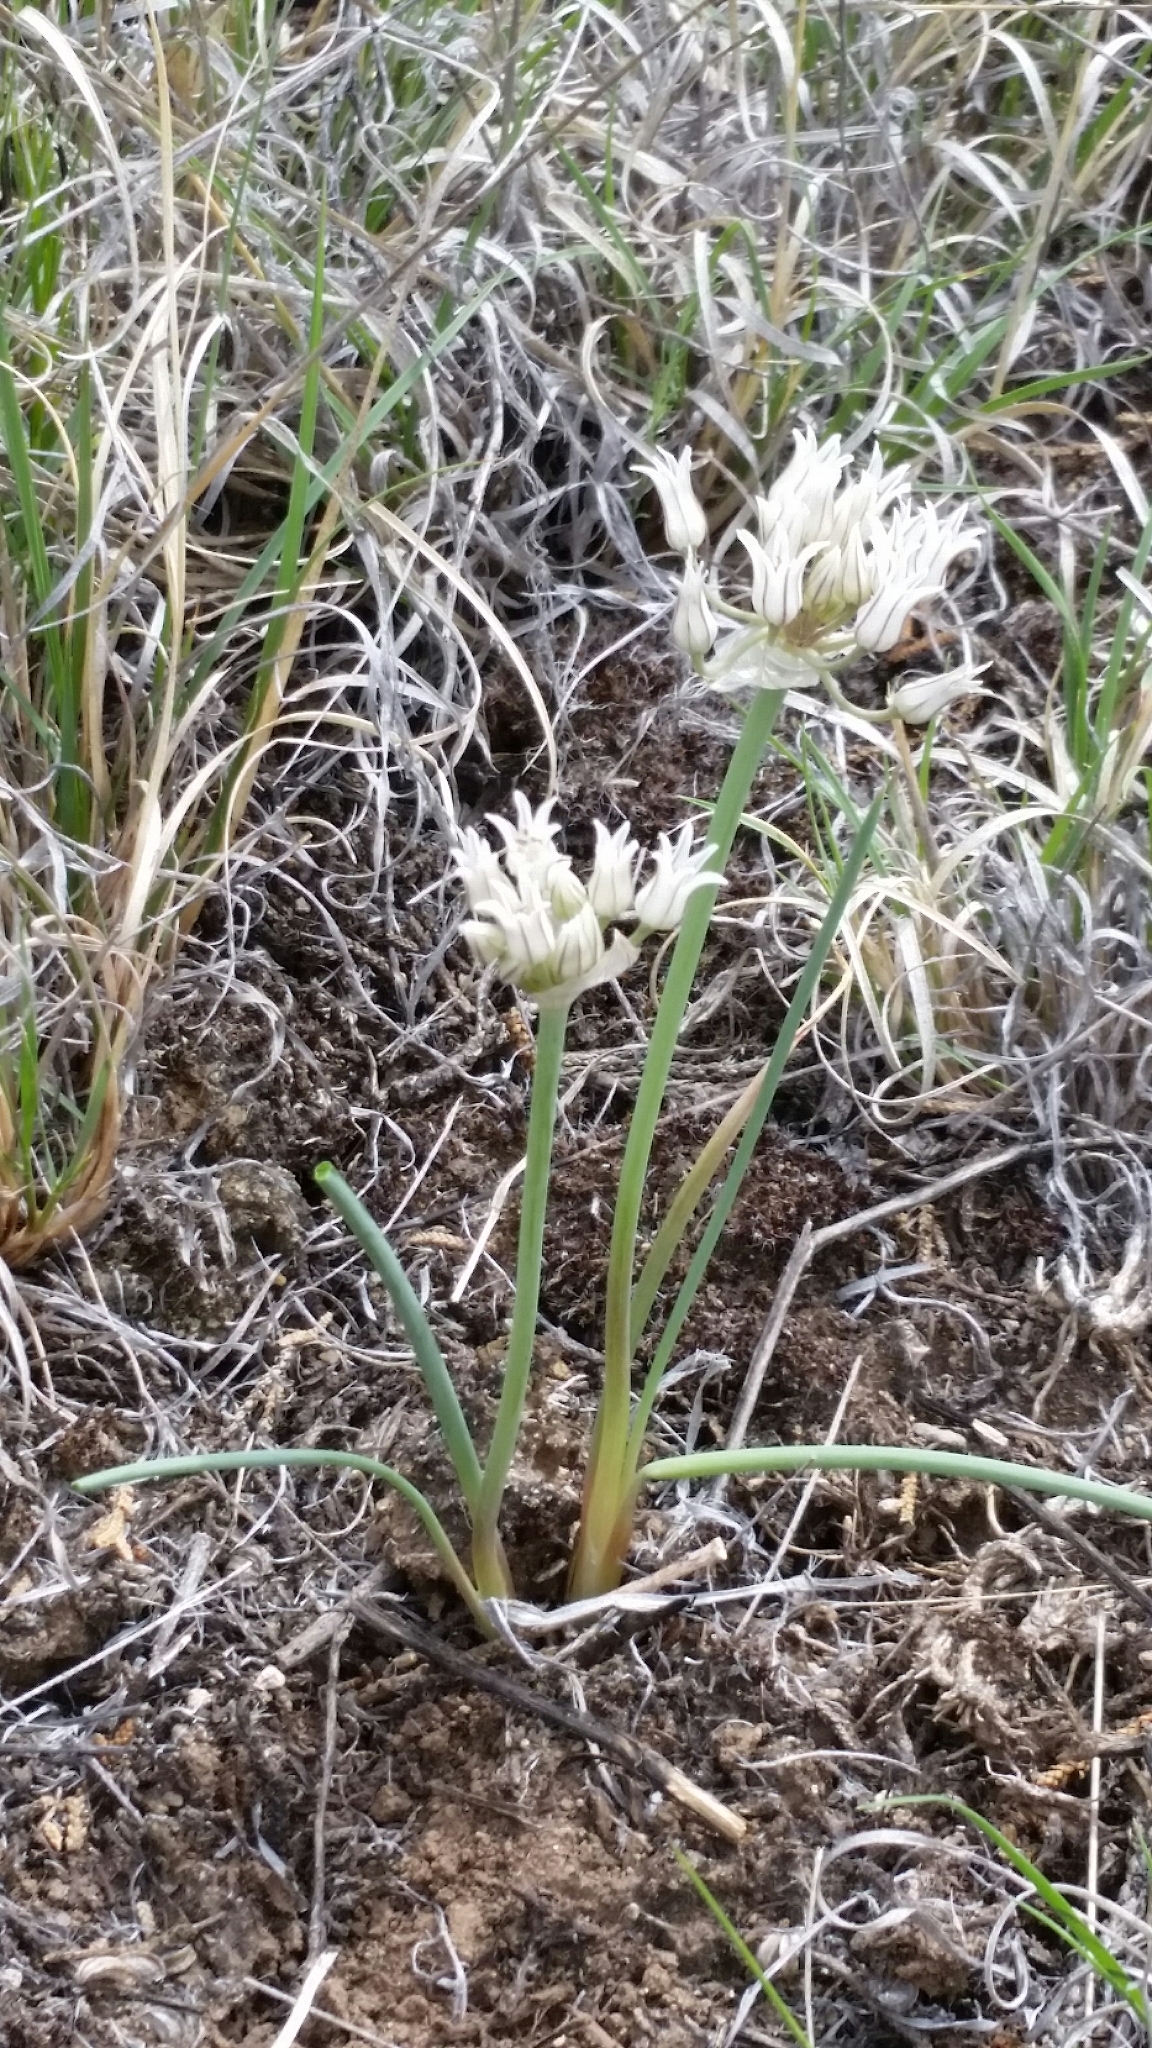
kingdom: Plantae
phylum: Tracheophyta
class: Liliopsida
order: Asparagales
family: Amaryllidaceae
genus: Allium
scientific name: Allium macropetalum
